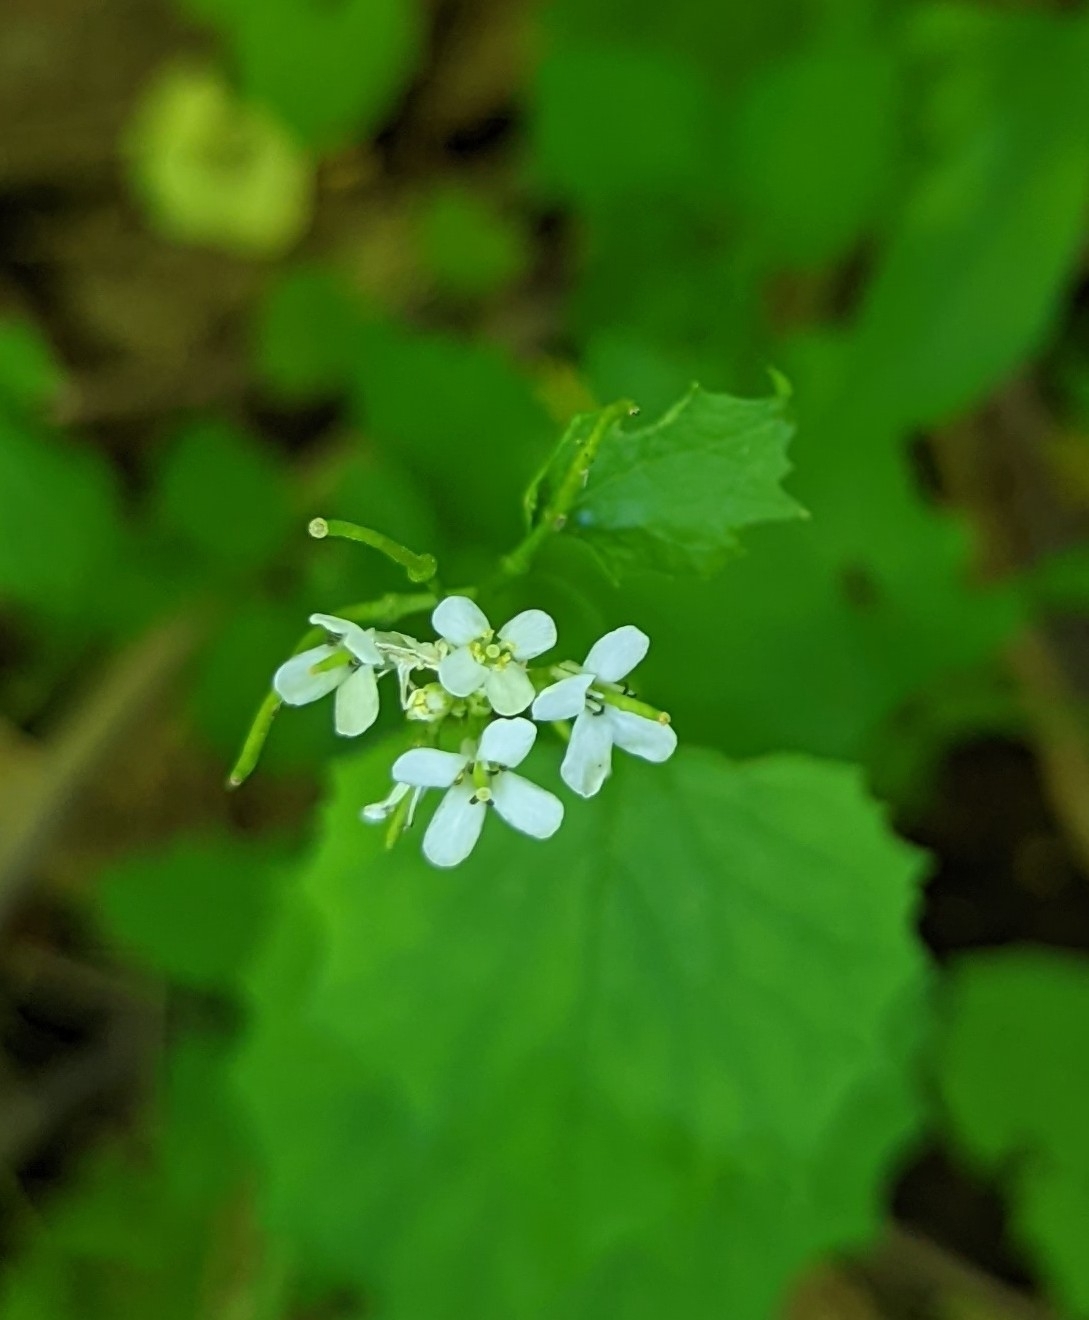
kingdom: Plantae
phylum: Tracheophyta
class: Magnoliopsida
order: Brassicales
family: Brassicaceae
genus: Alliaria
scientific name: Alliaria petiolata
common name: Garlic mustard
